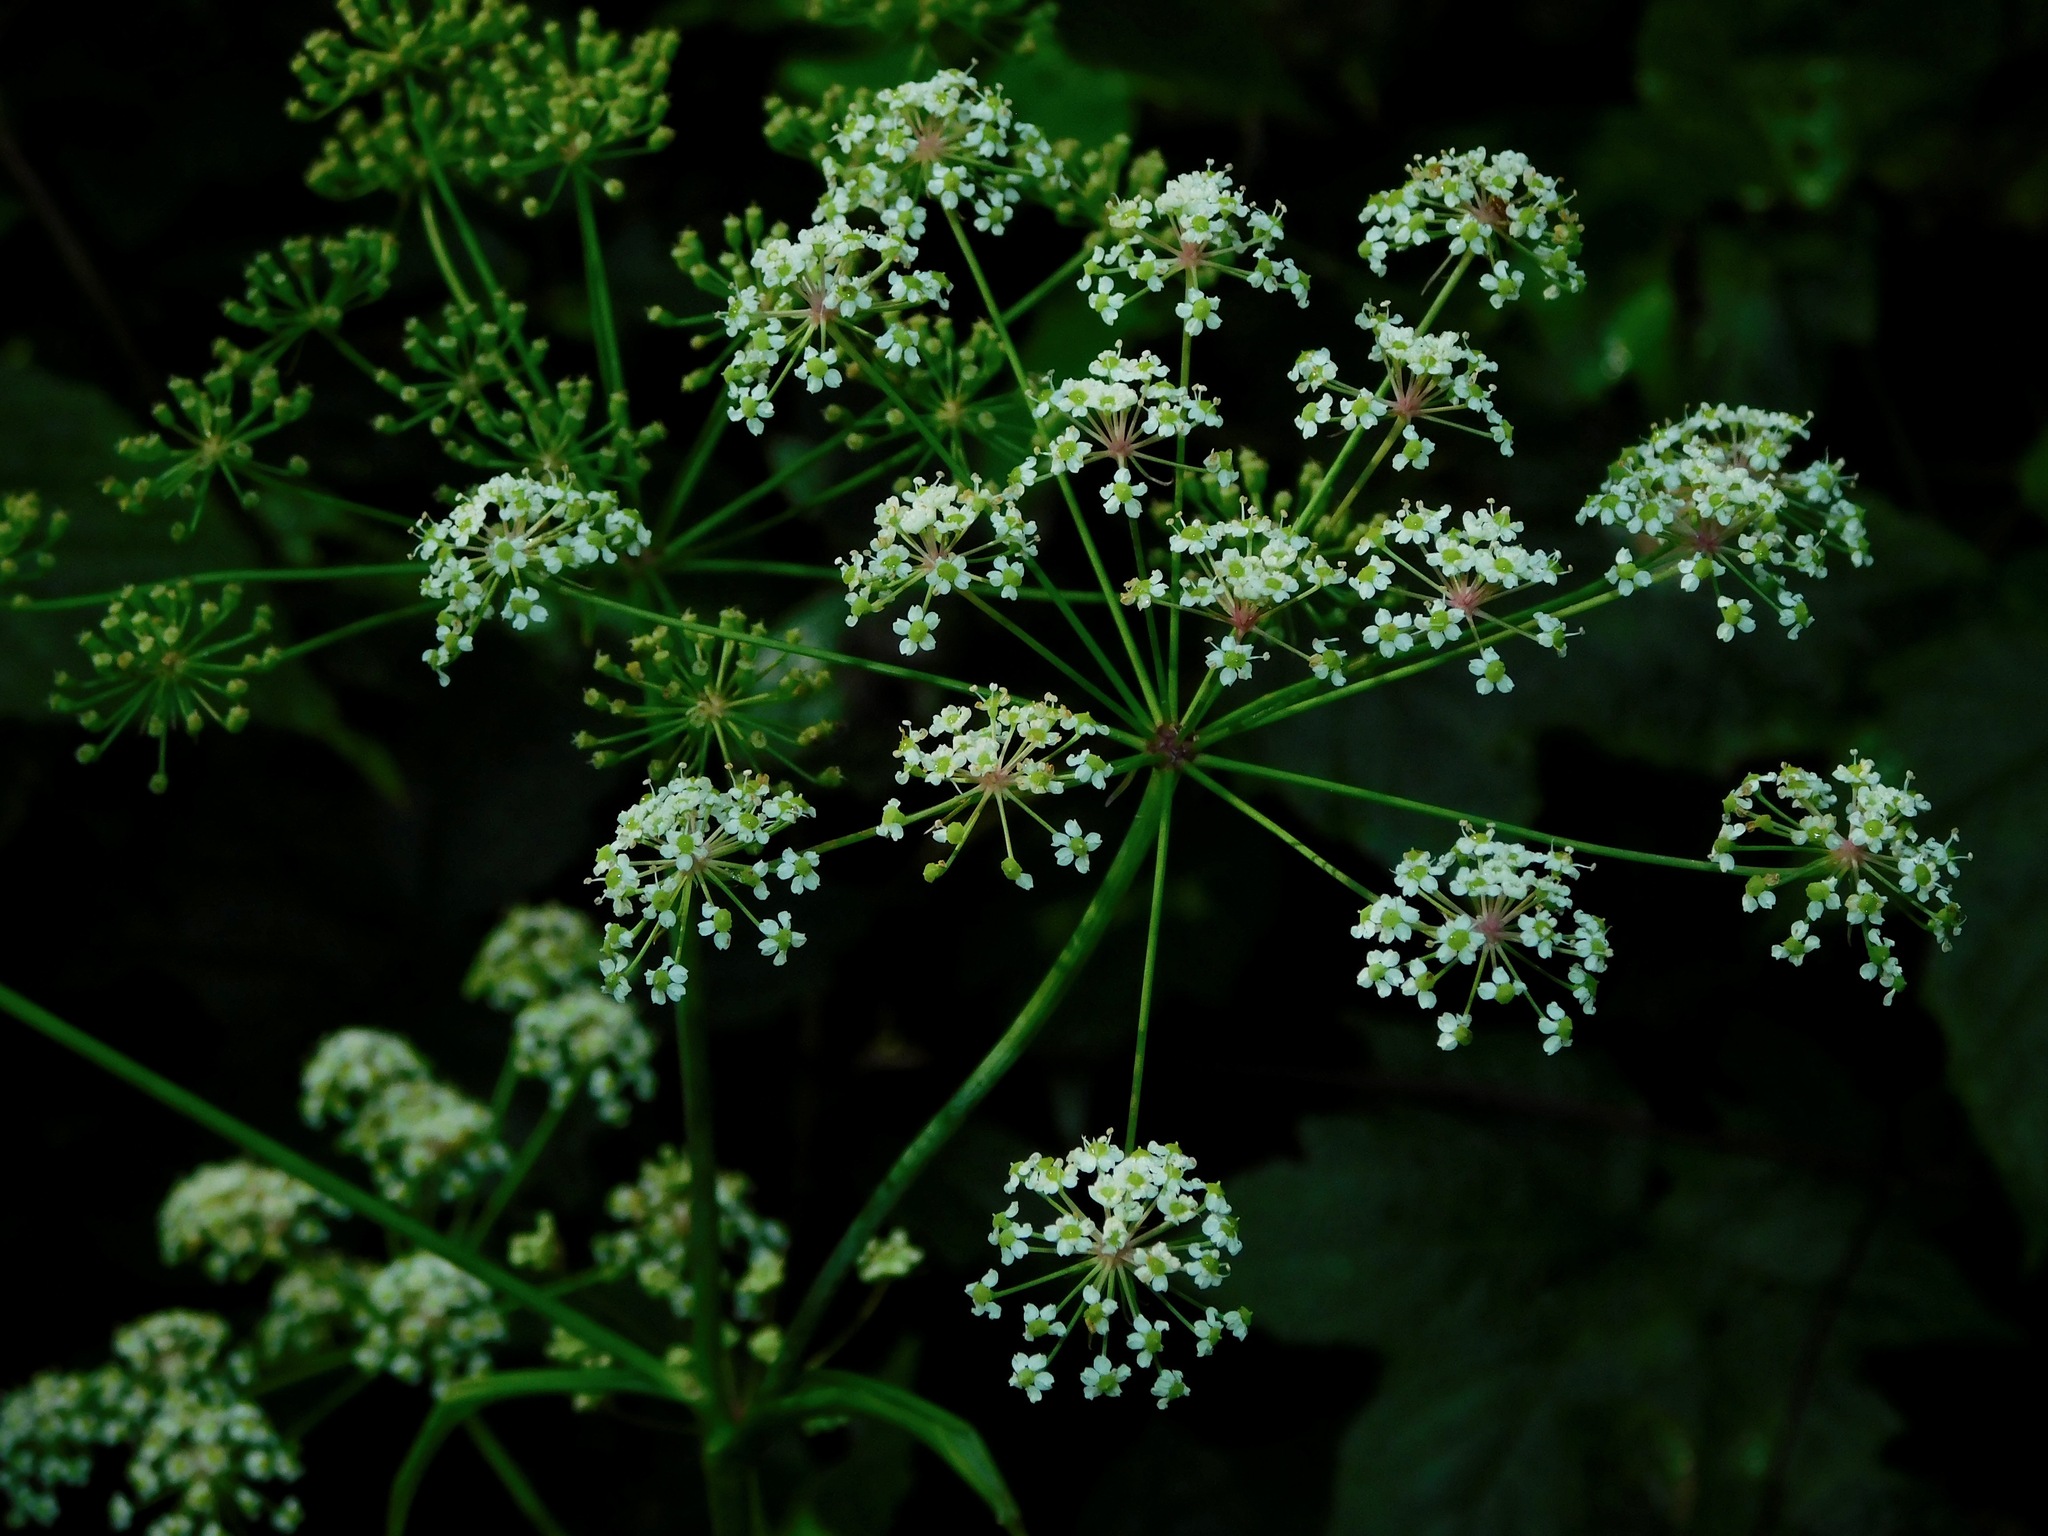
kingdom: Plantae
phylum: Tracheophyta
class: Magnoliopsida
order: Apiales
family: Apiaceae
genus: Oxypolis
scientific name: Oxypolis rigidior
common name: Cowbane
